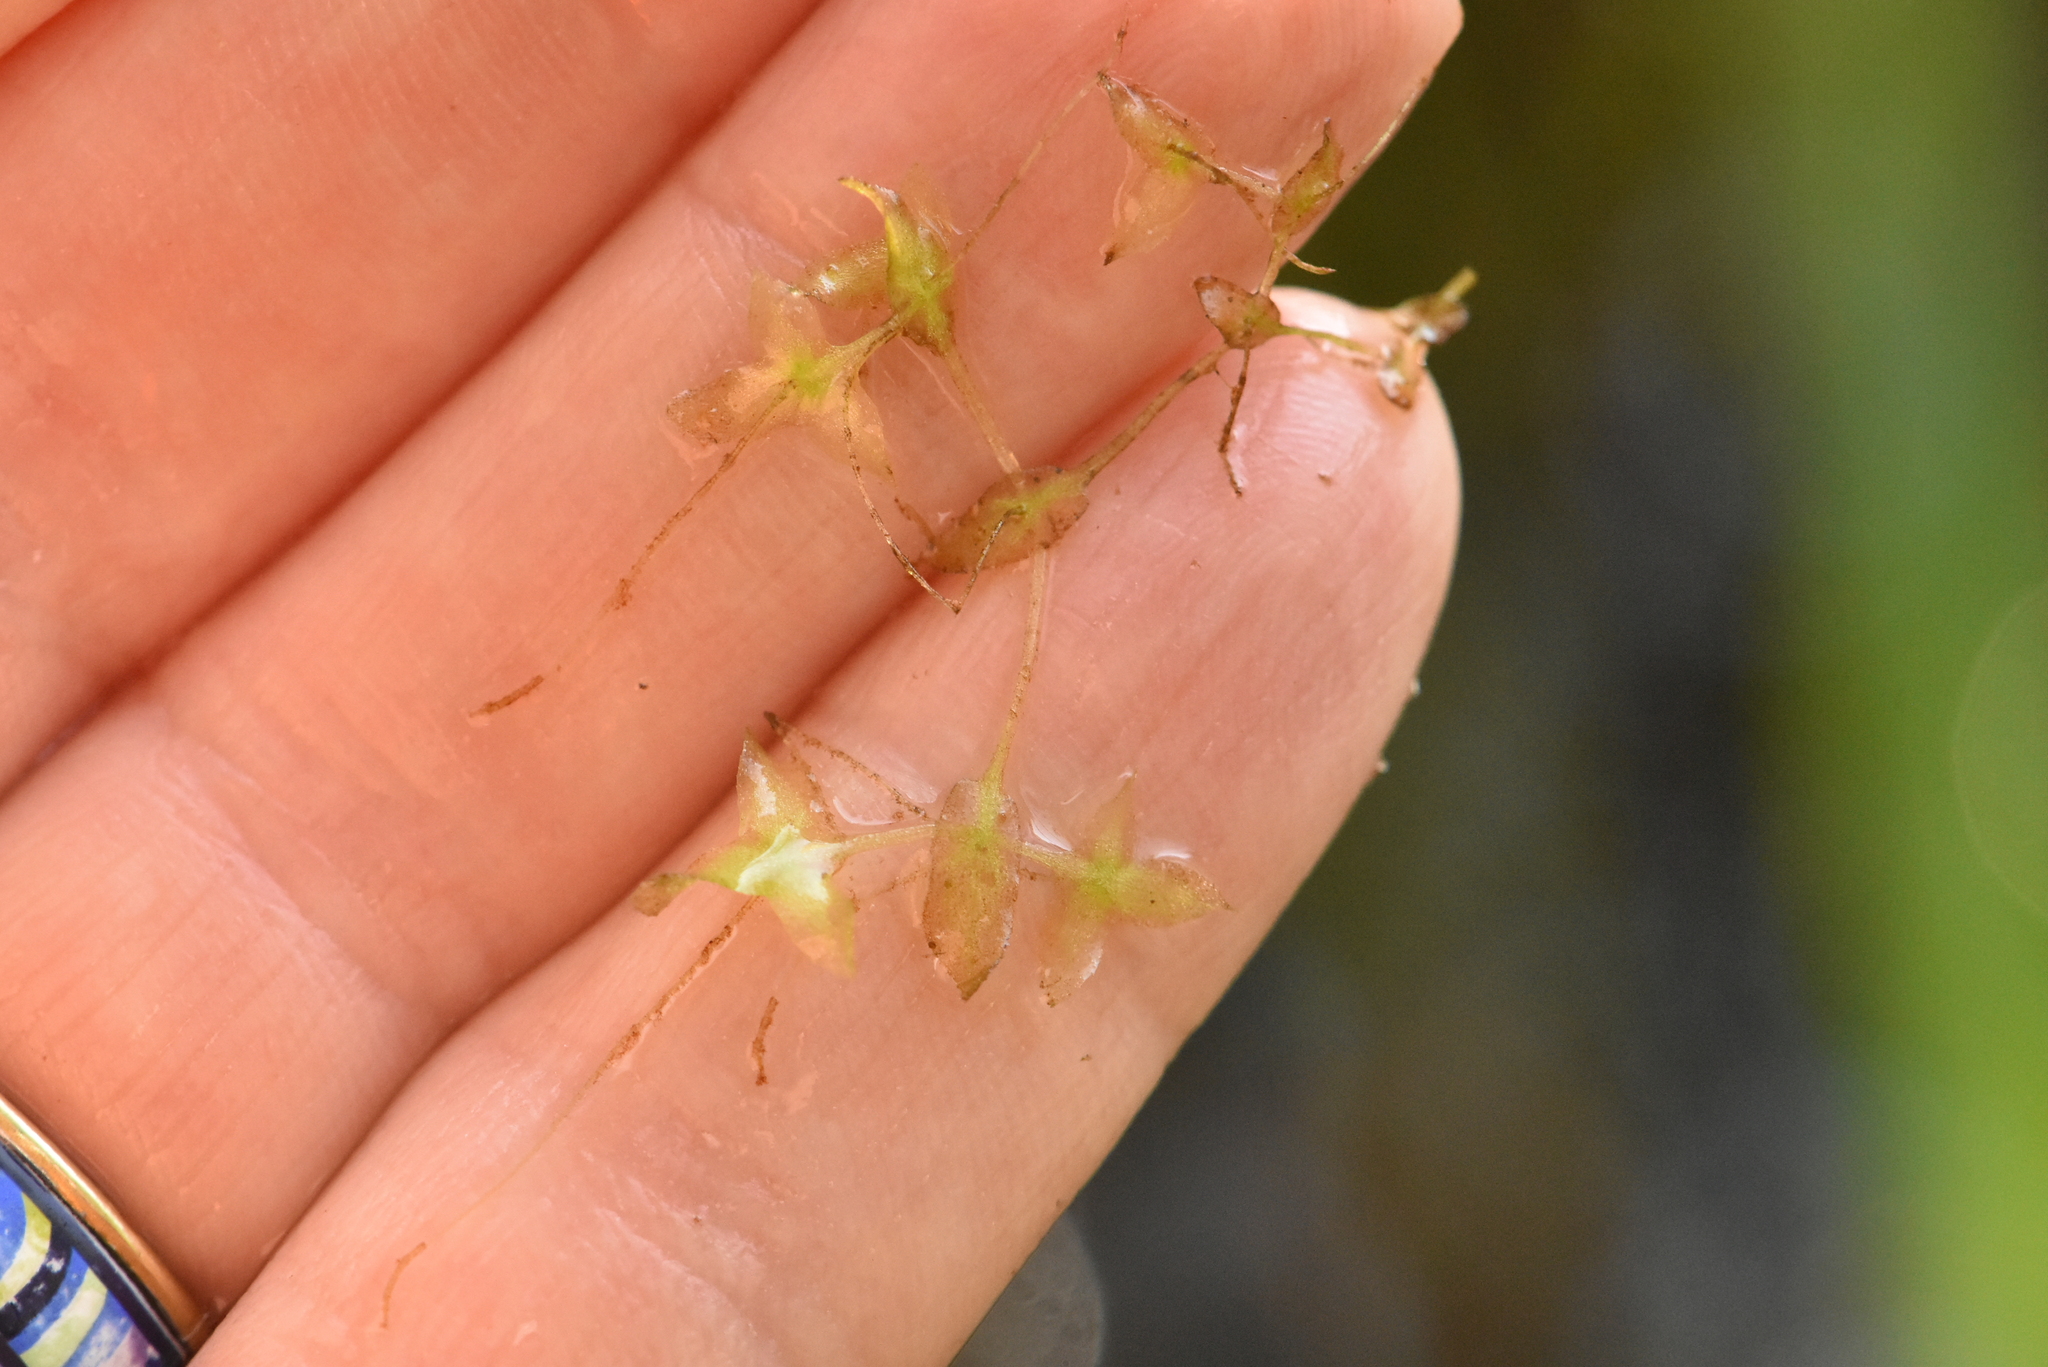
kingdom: Plantae
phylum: Tracheophyta
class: Liliopsida
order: Alismatales
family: Araceae
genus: Lemna
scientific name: Lemna trisulca
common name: Ivy-leaved duckweed
